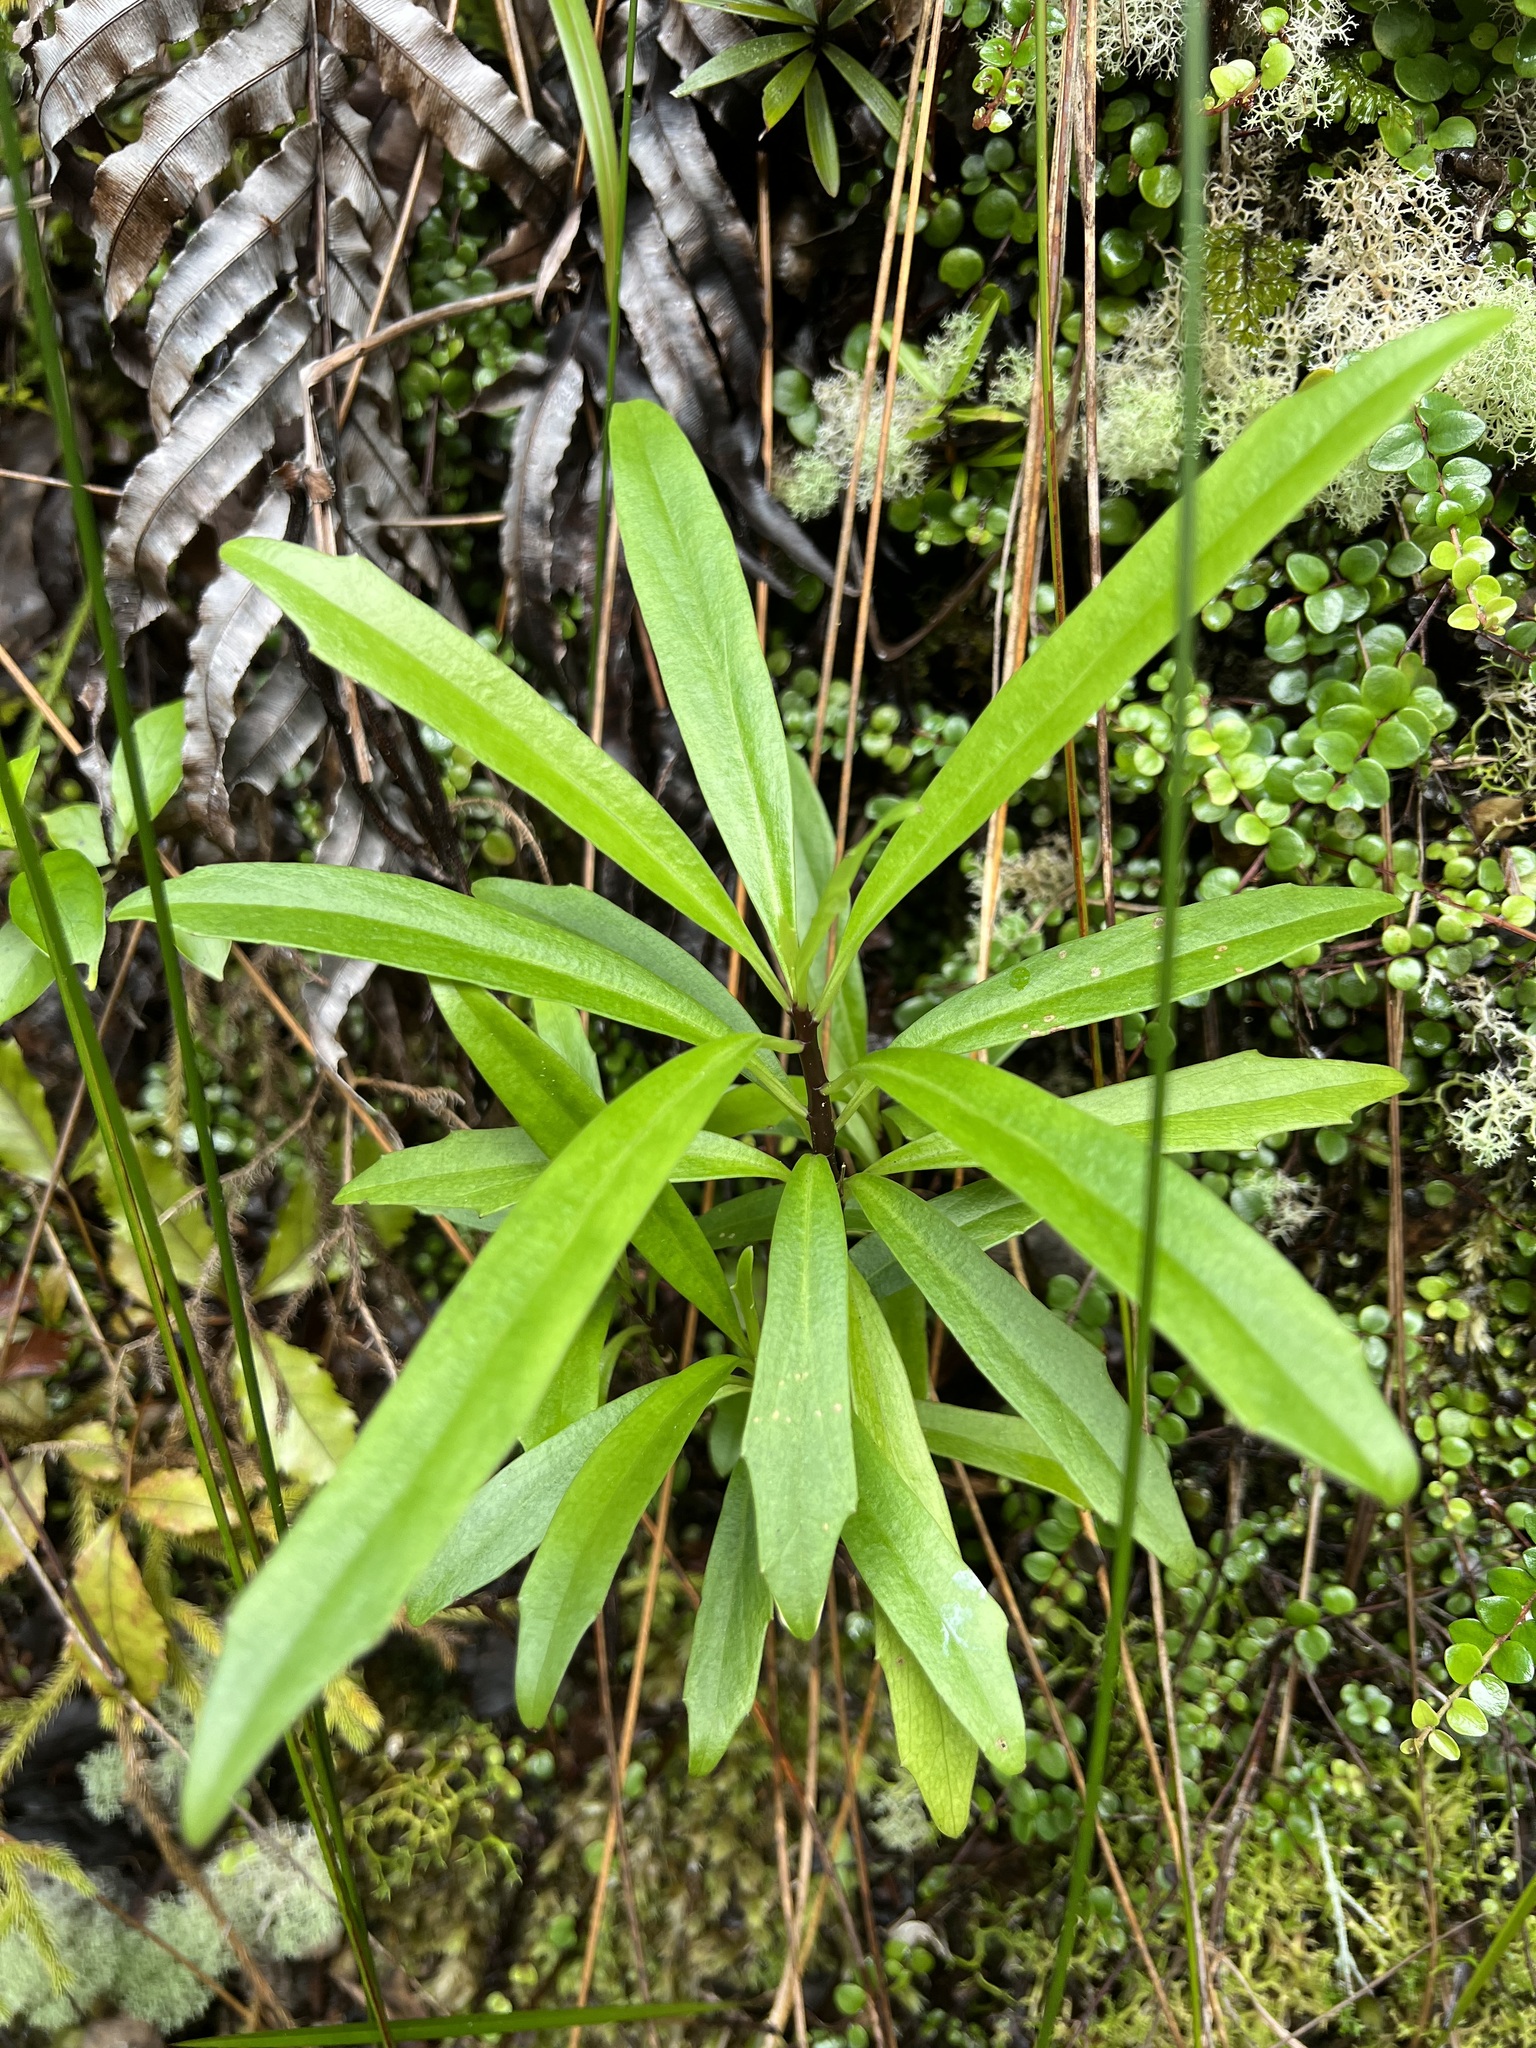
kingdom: Plantae
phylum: Tracheophyta
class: Magnoliopsida
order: Asterales
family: Asteraceae
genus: Brachyglottis
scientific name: Brachyglottis kirkii
